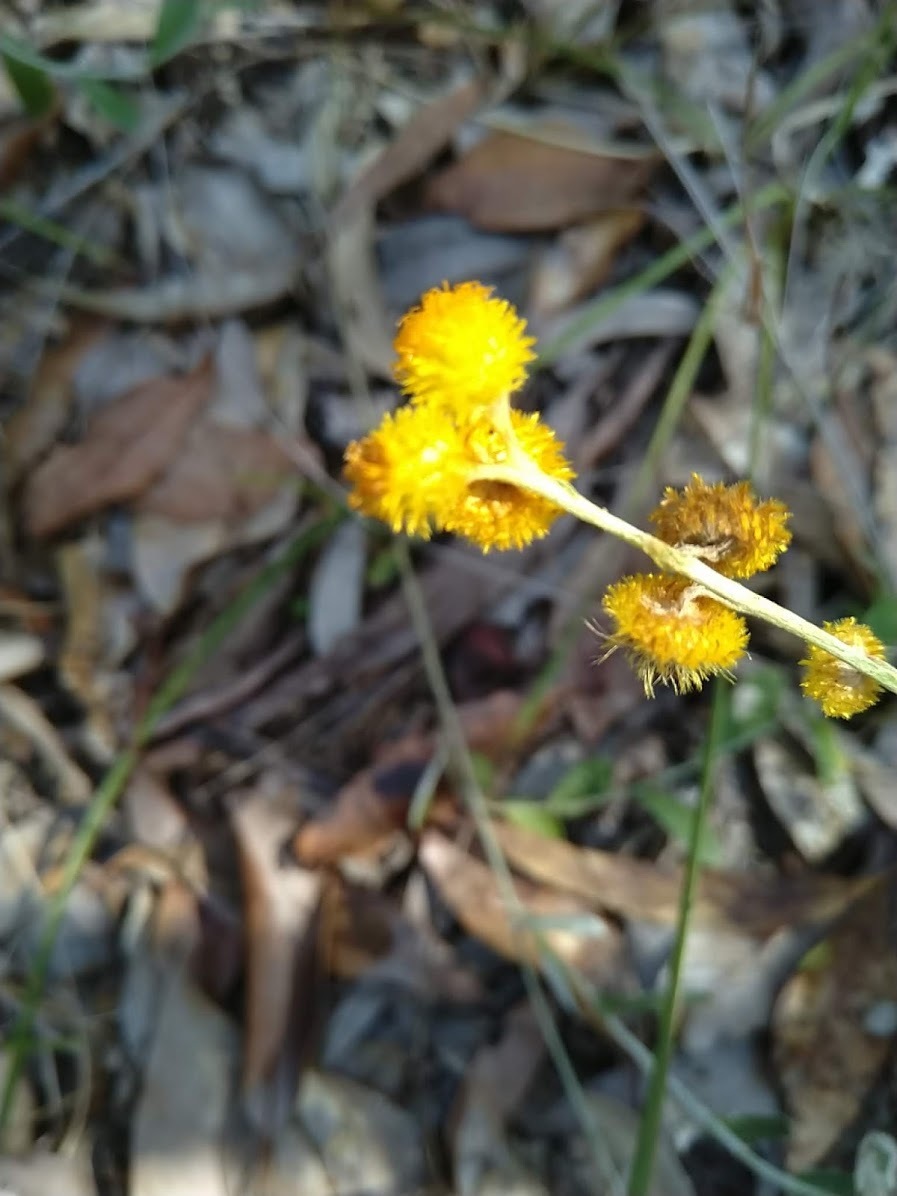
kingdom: Plantae
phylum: Tracheophyta
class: Magnoliopsida
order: Asterales
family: Asteraceae
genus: Chrysocephalum
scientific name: Chrysocephalum apiculatum
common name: Common everlasting
